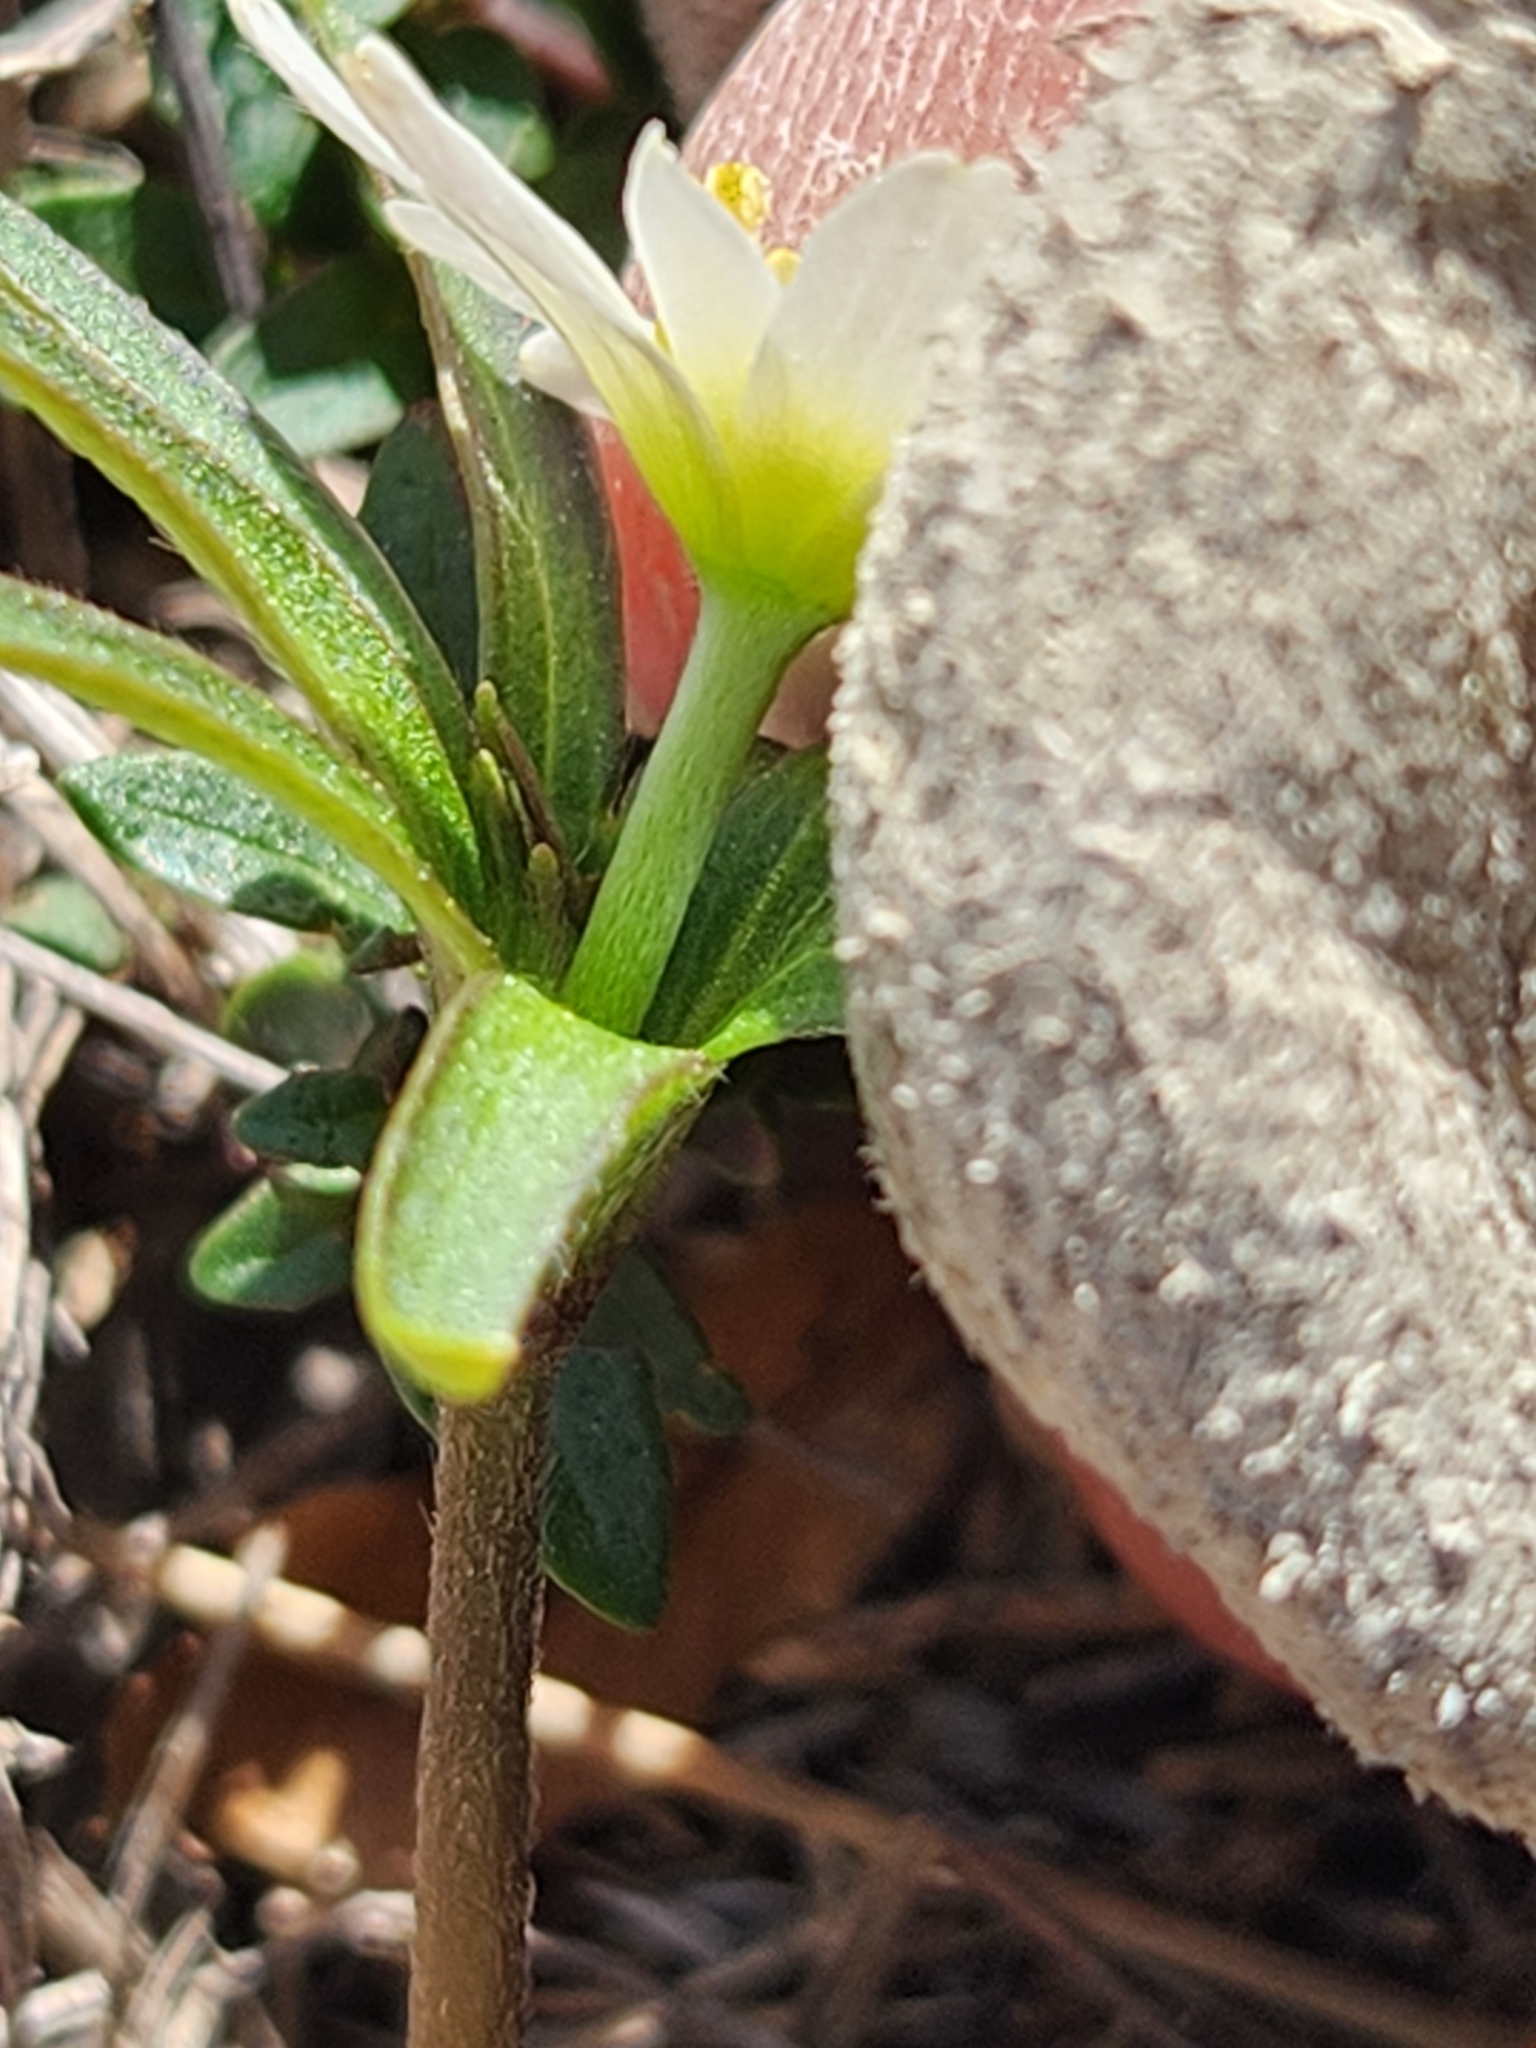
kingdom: Plantae
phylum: Tracheophyta
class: Magnoliopsida
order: Ranunculales
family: Ranunculaceae
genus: Anemone
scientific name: Anemone edwardsiana
